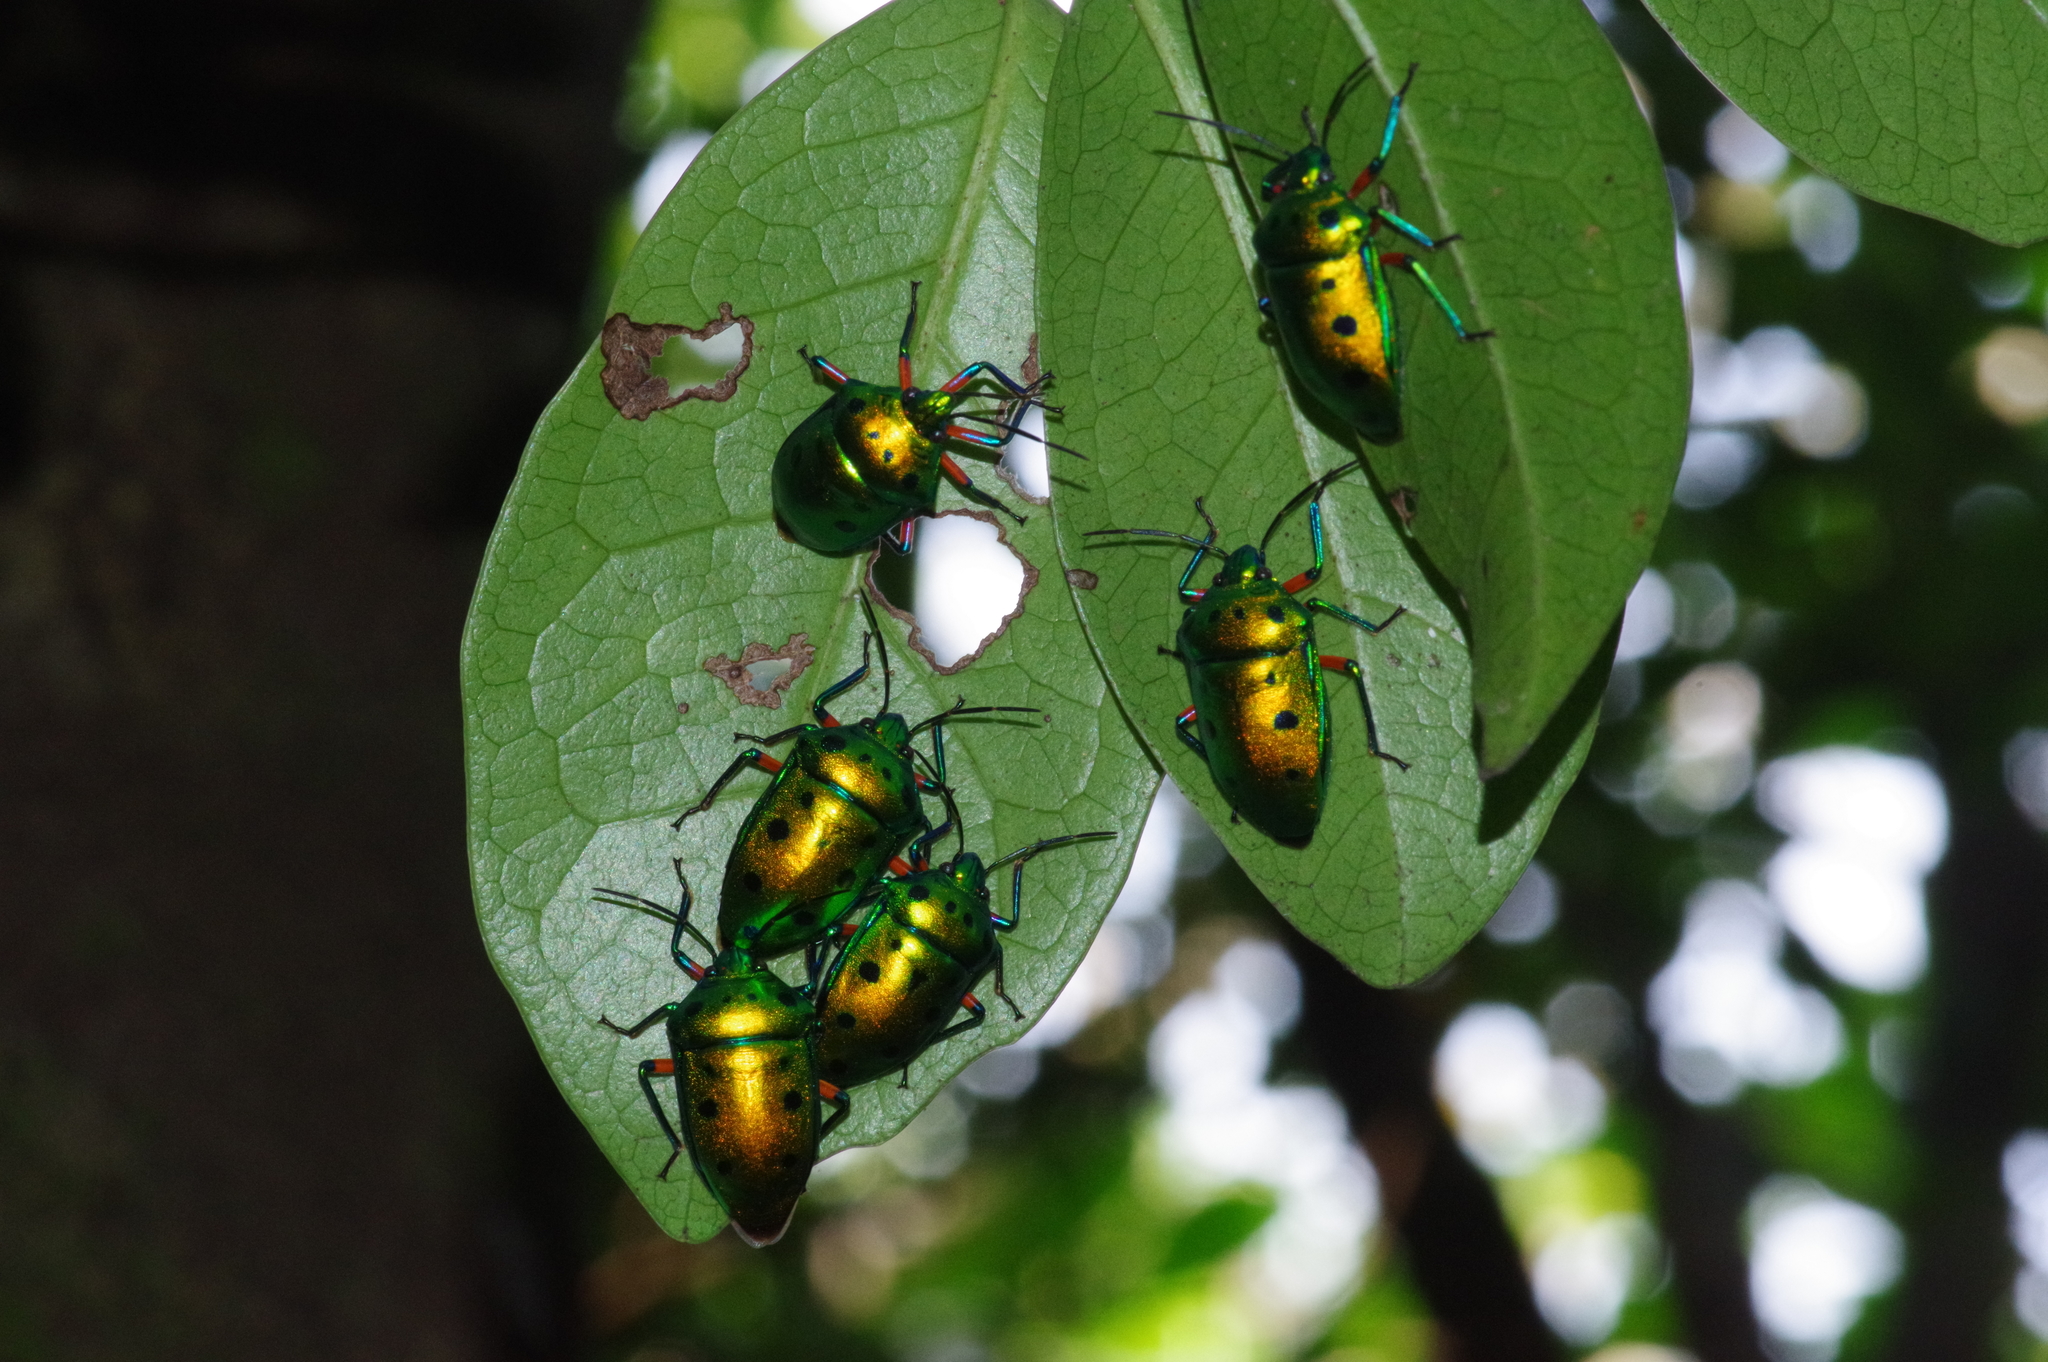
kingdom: Animalia
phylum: Arthropoda
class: Insecta
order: Hemiptera
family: Scutelleridae
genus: Calliphara
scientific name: Calliphara excellens
